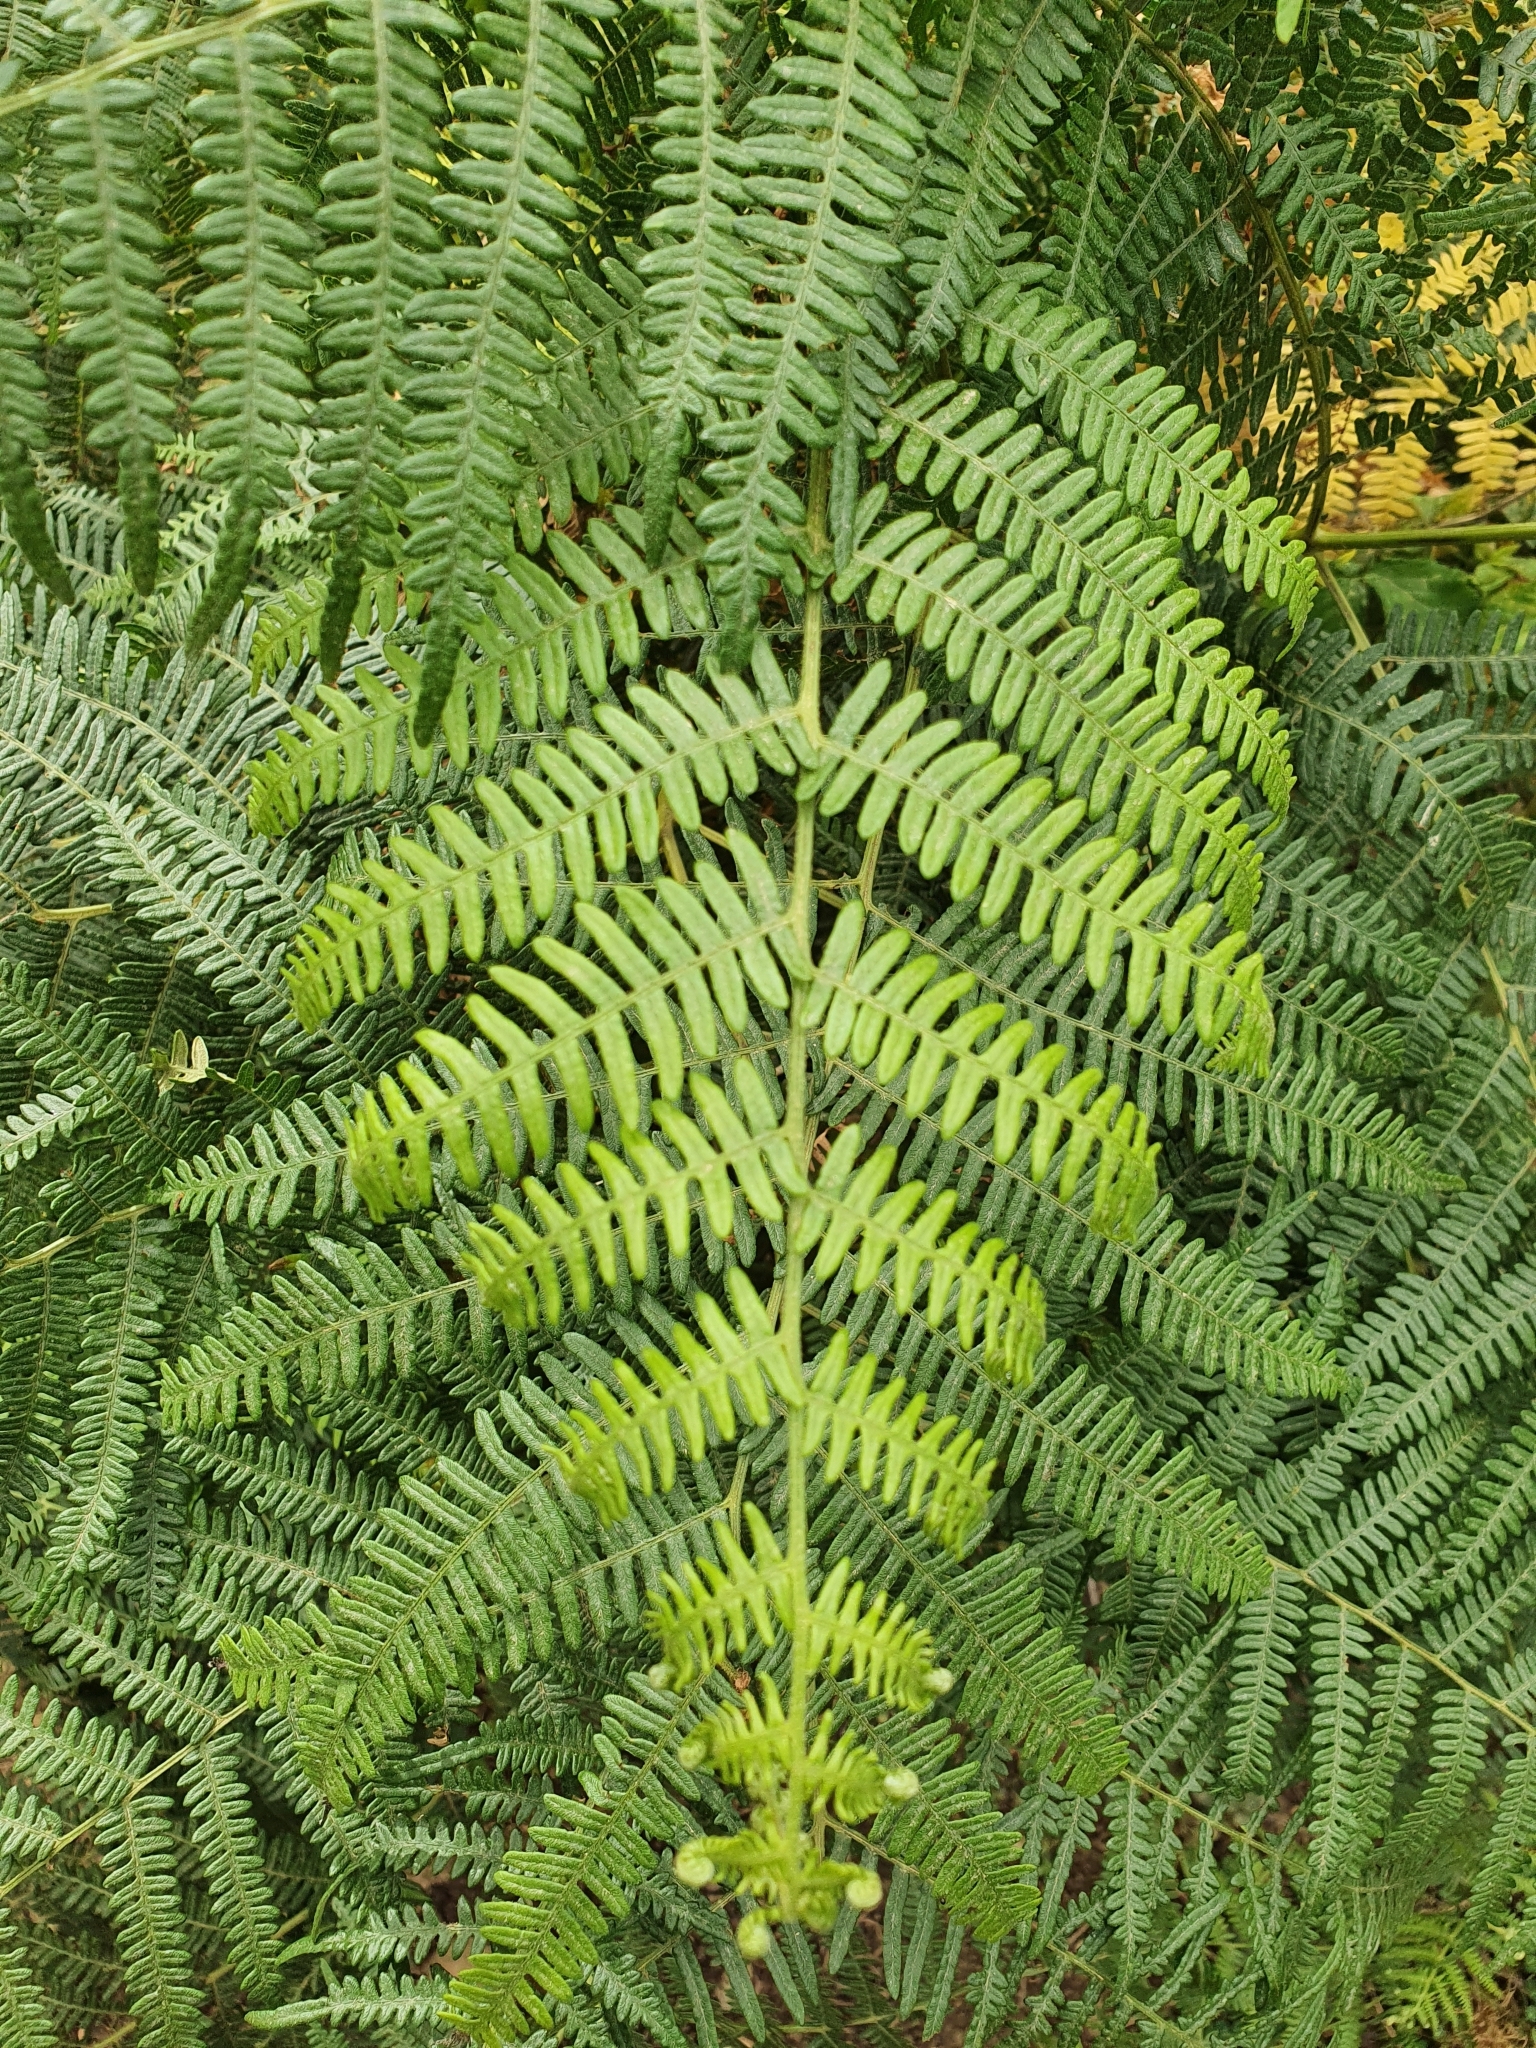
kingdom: Plantae
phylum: Tracheophyta
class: Polypodiopsida
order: Polypodiales
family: Dennstaedtiaceae
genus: Pteridium
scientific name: Pteridium aquilinum
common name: Bracken
